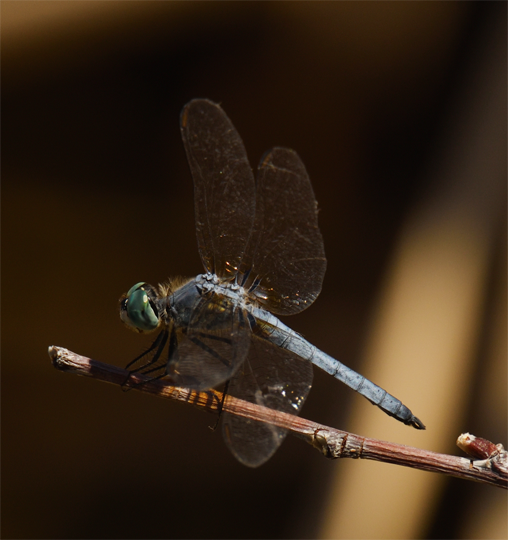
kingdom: Animalia
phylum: Arthropoda
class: Insecta
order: Odonata
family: Libellulidae
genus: Pachydiplax
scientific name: Pachydiplax longipennis
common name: Blue dasher
